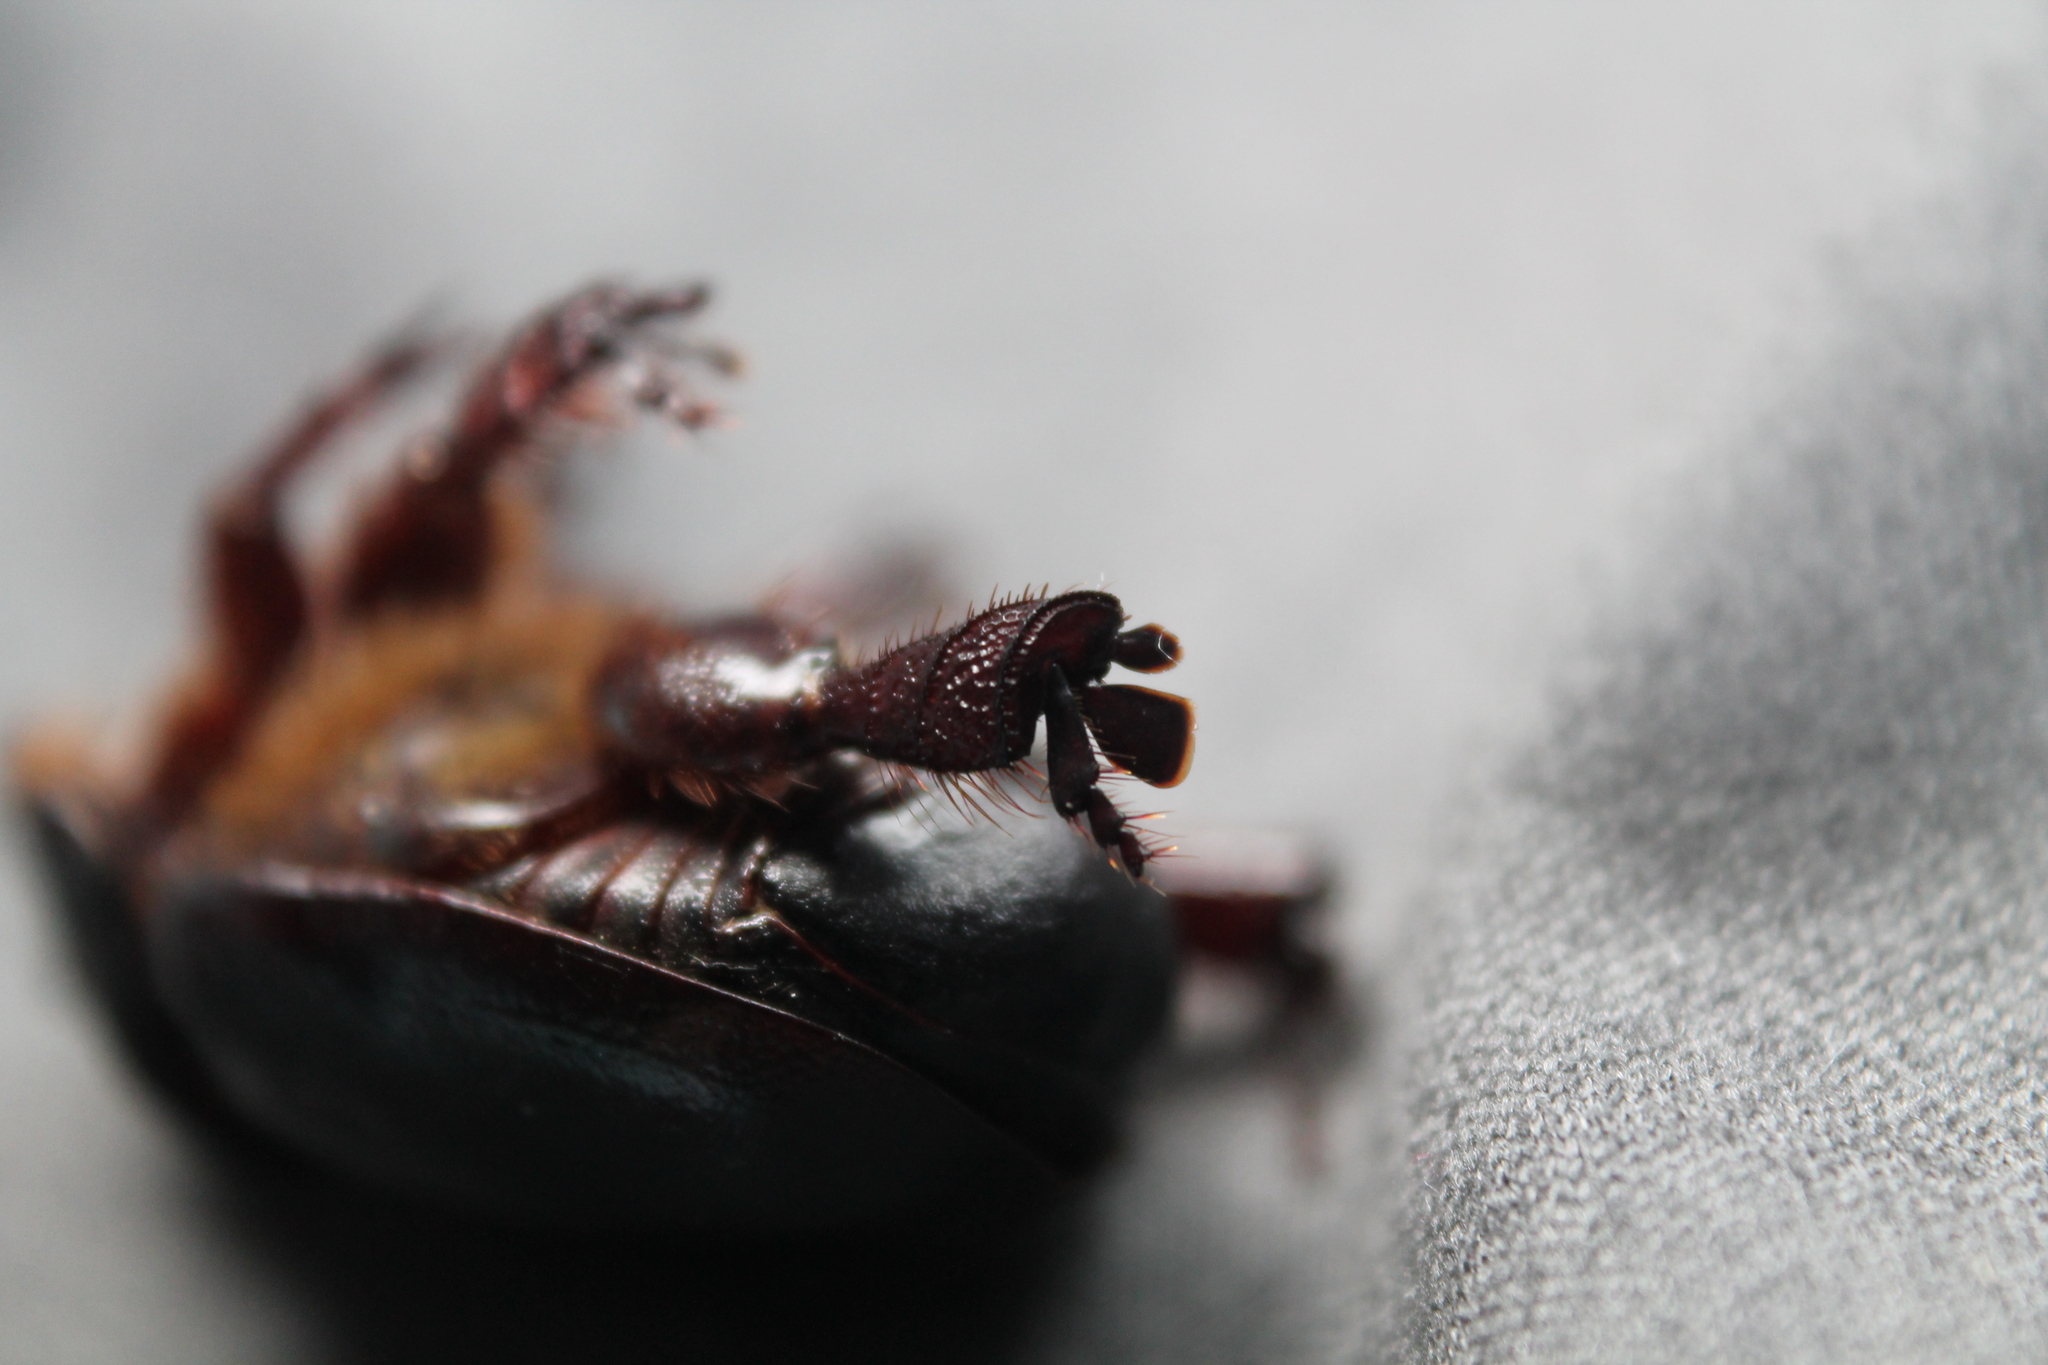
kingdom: Animalia
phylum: Arthropoda
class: Insecta
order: Coleoptera
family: Scarabaeidae
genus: Pericoptus
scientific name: Pericoptus truncatus
